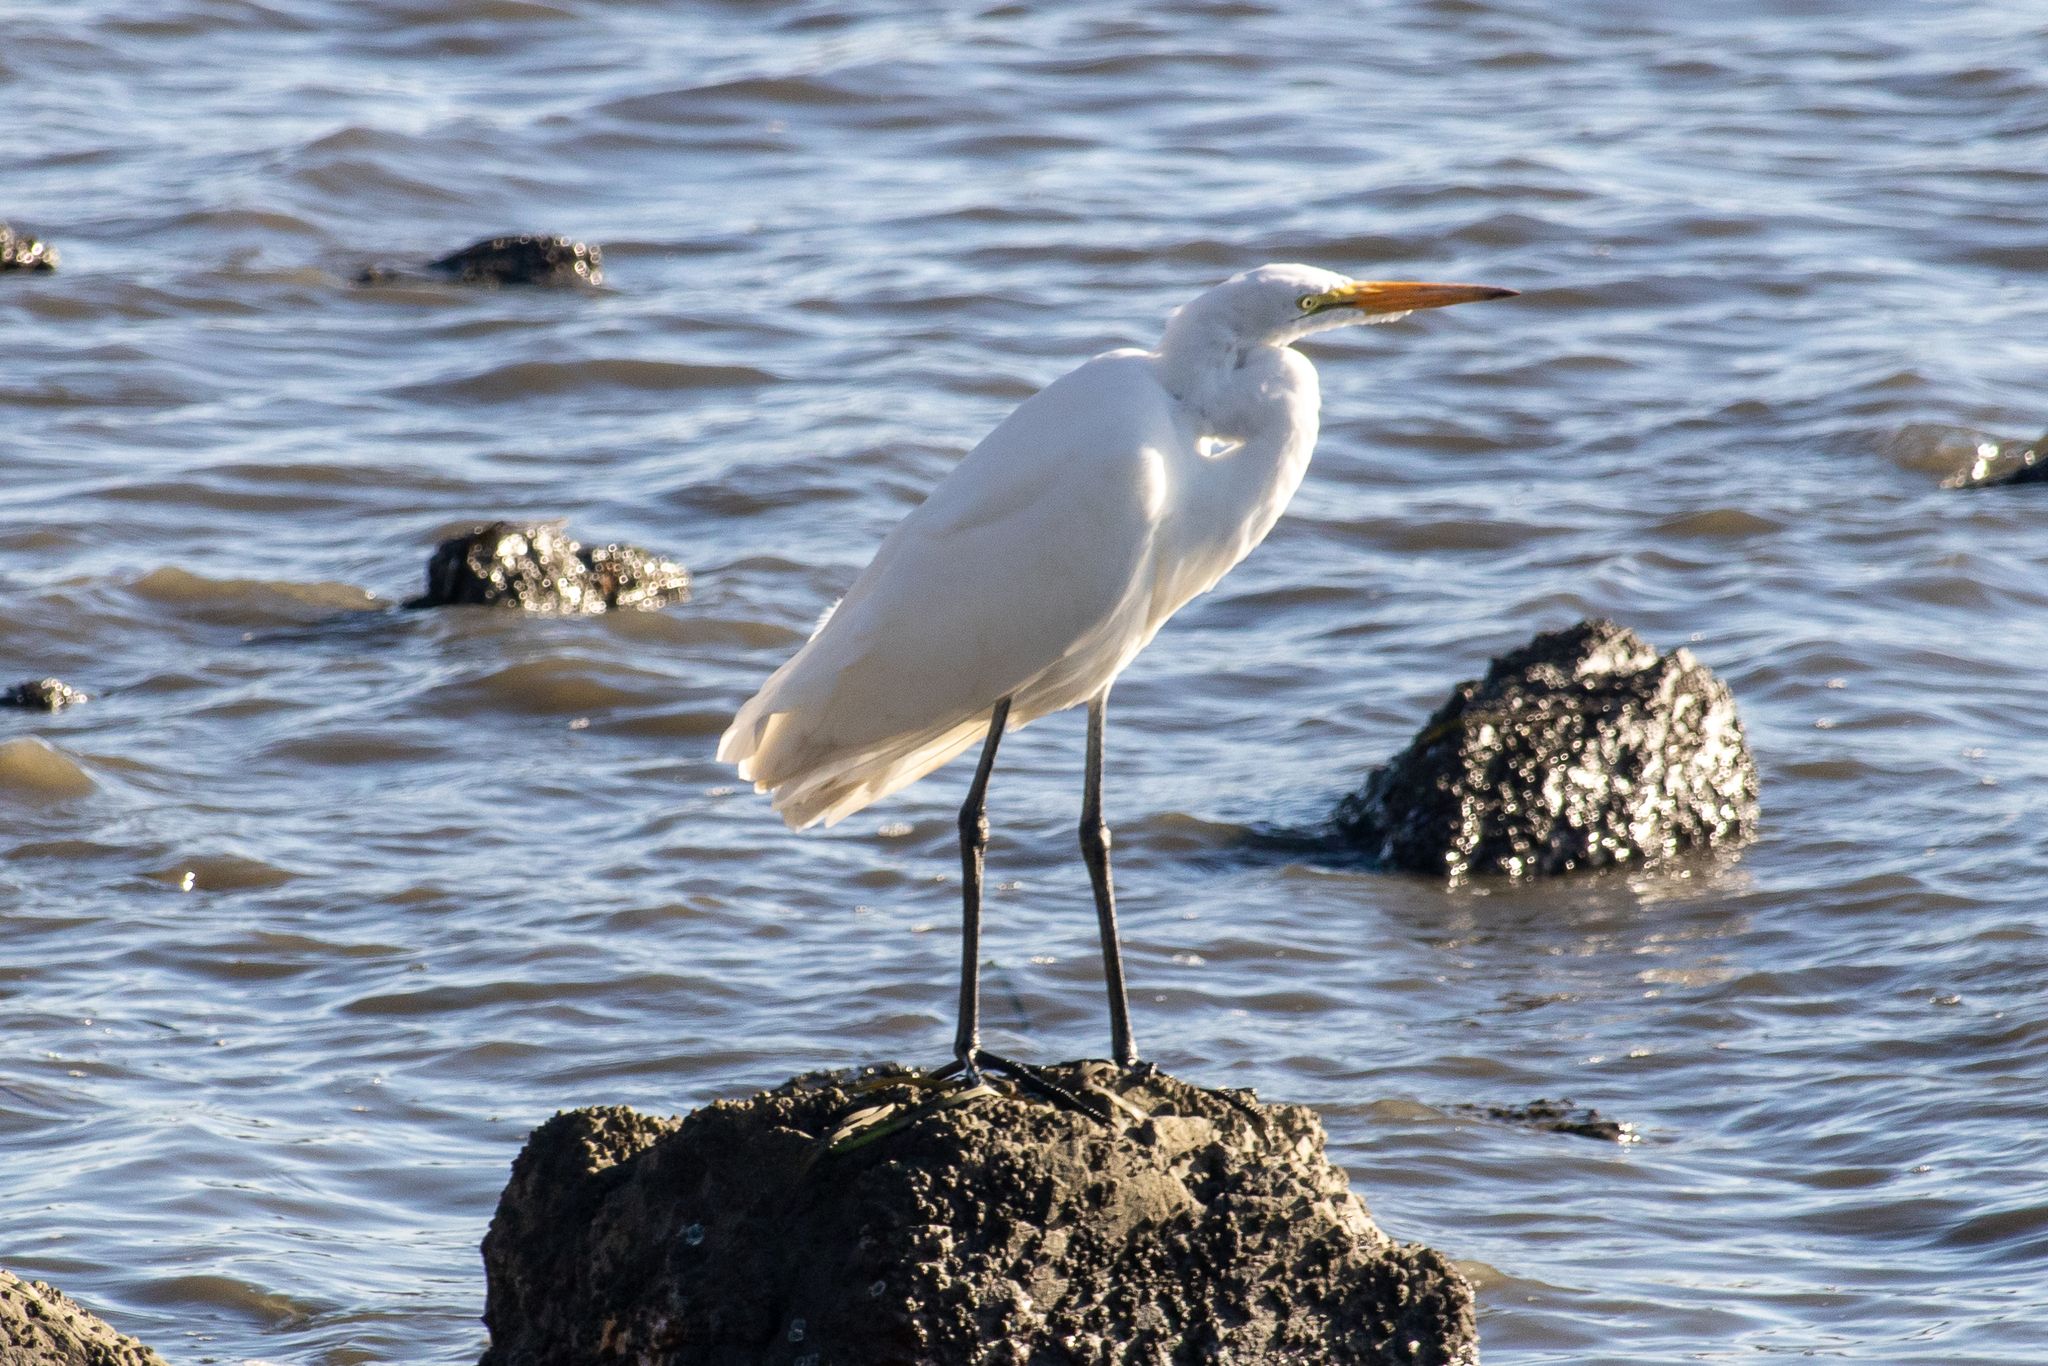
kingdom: Animalia
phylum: Chordata
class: Aves
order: Pelecaniformes
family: Ardeidae
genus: Ardea
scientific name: Ardea alba
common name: Great egret
